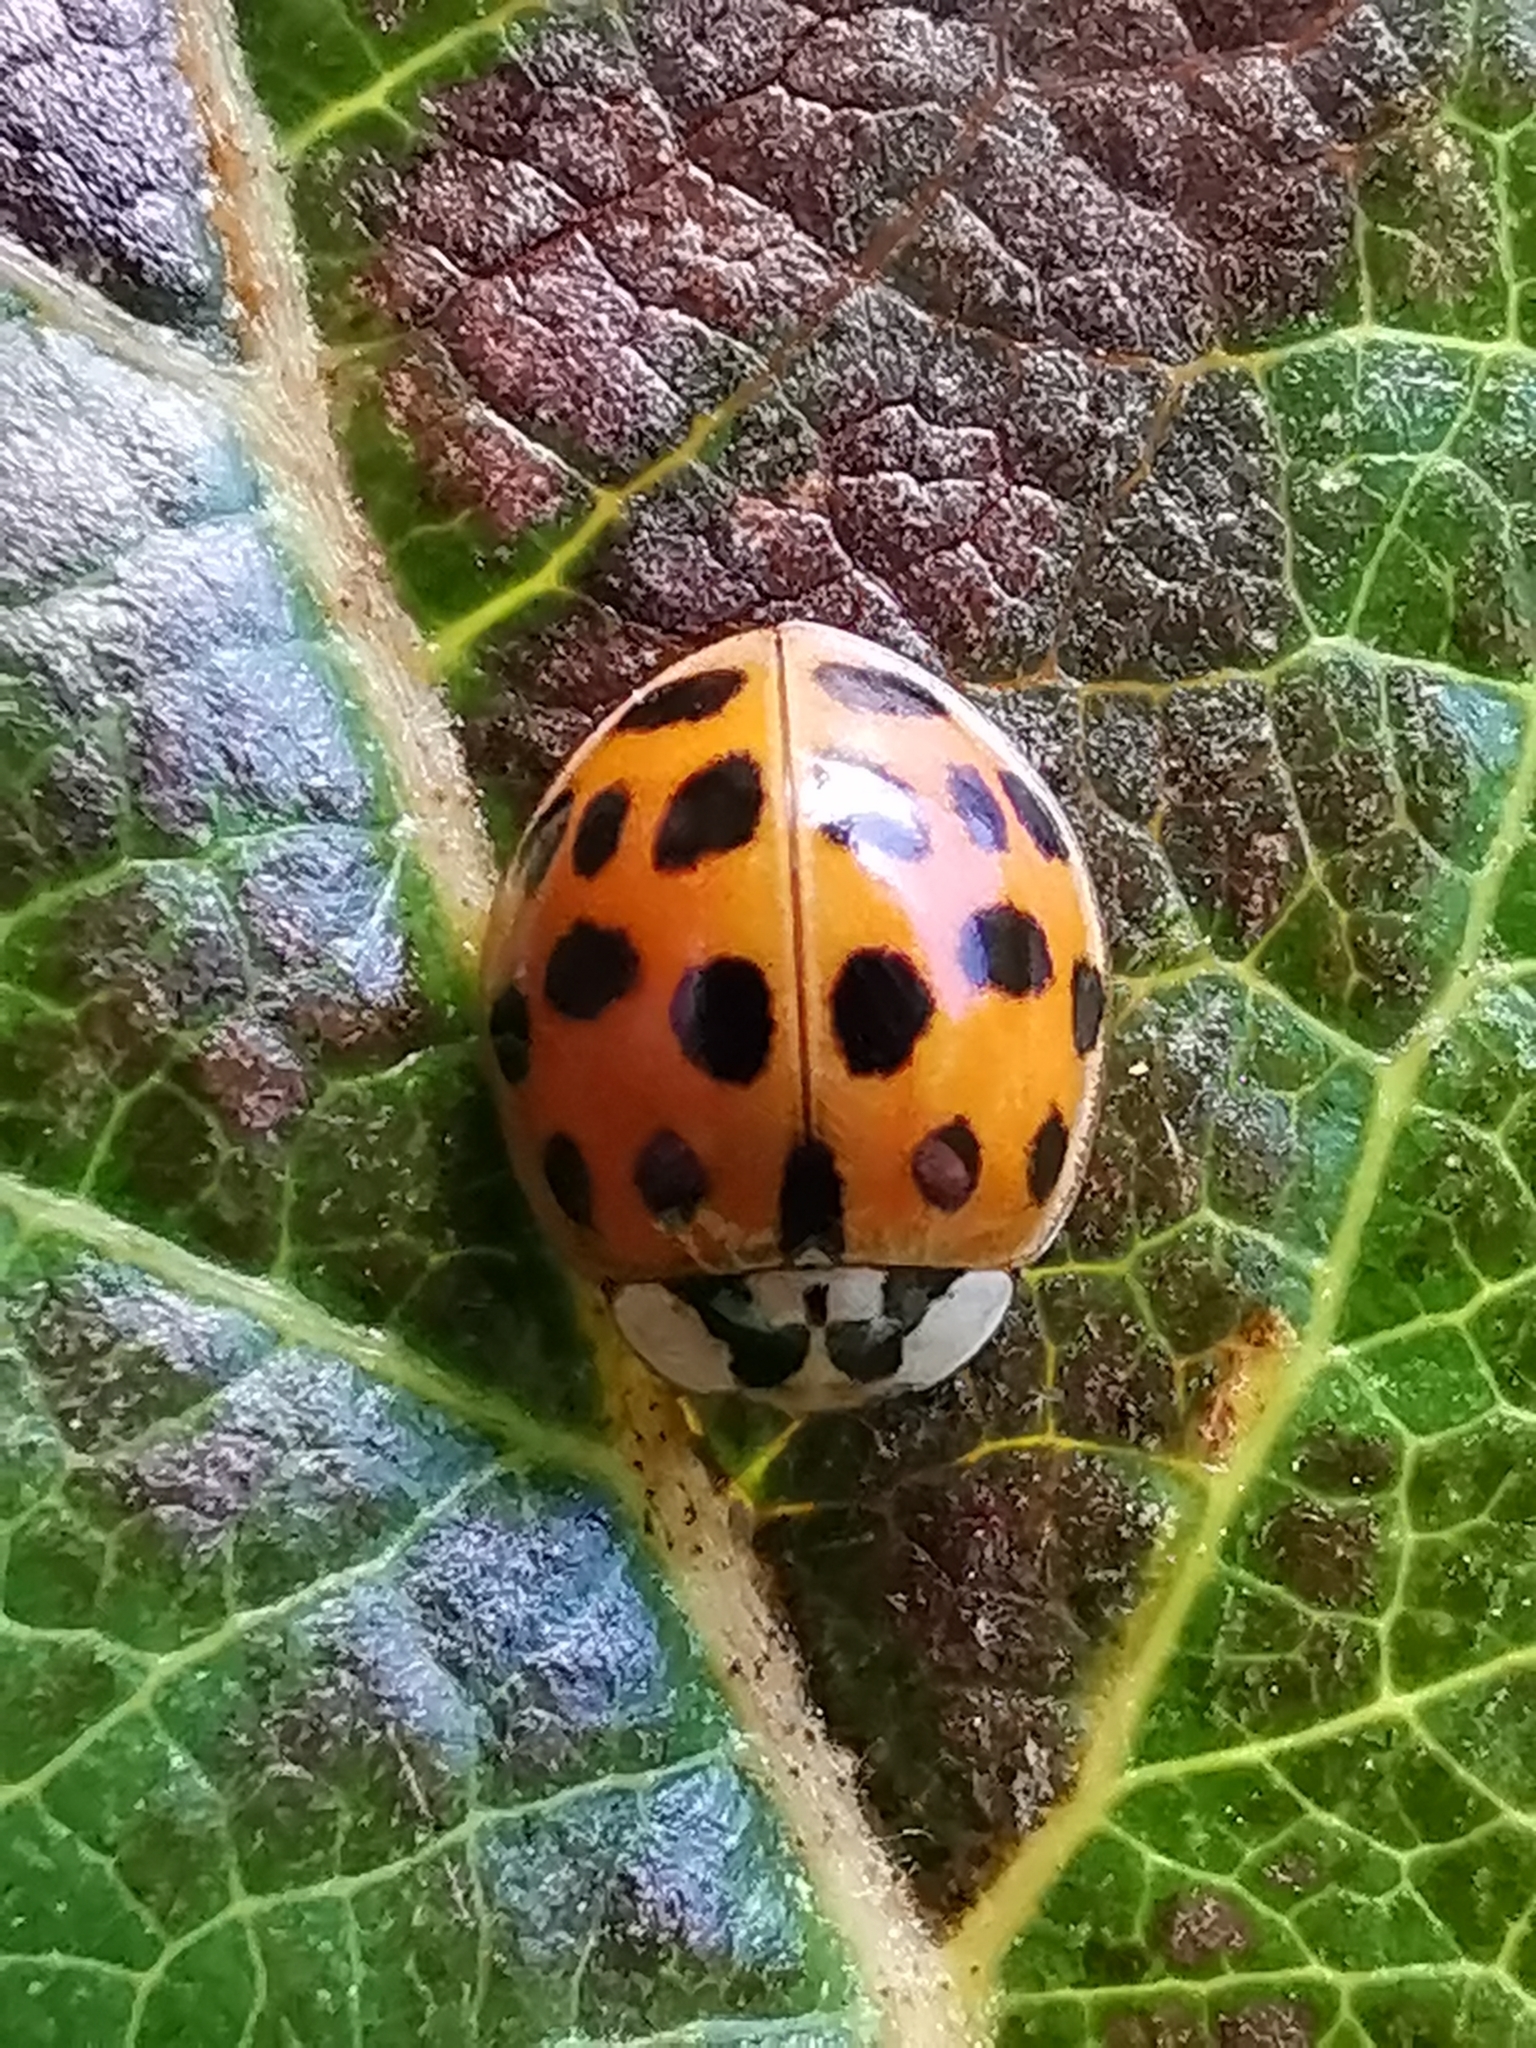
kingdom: Animalia
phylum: Arthropoda
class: Insecta
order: Coleoptera
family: Coccinellidae
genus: Harmonia
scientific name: Harmonia axyridis
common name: Harlequin ladybird
